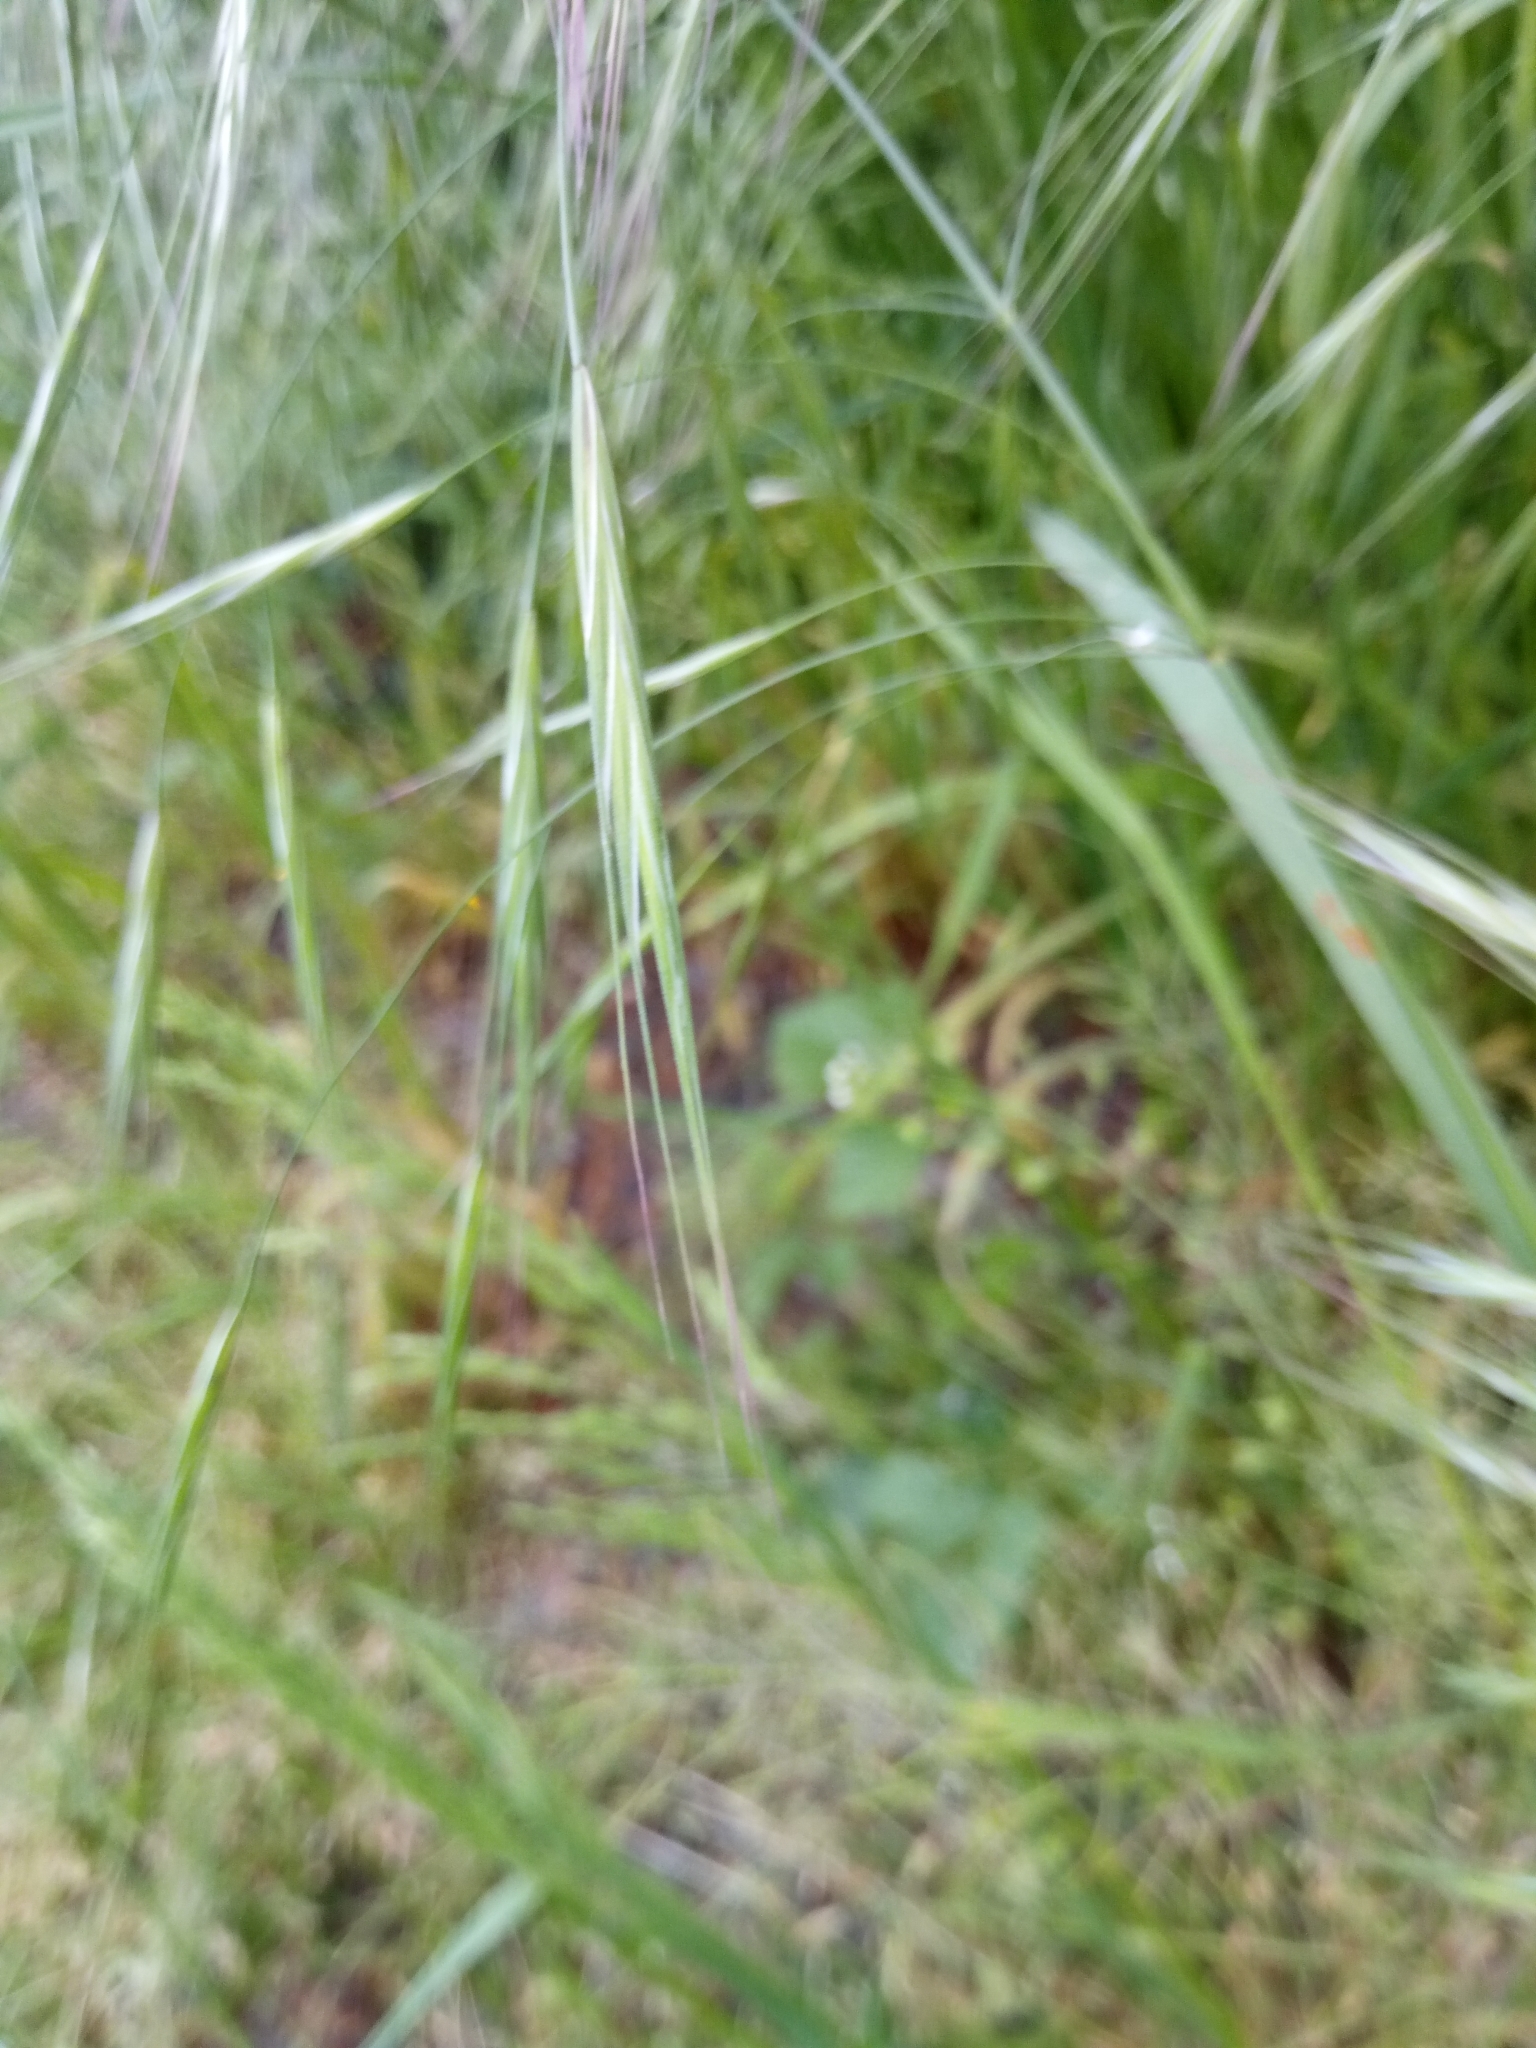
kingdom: Plantae
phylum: Tracheophyta
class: Liliopsida
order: Poales
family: Poaceae
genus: Bromus
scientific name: Bromus sterilis
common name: Poverty brome
